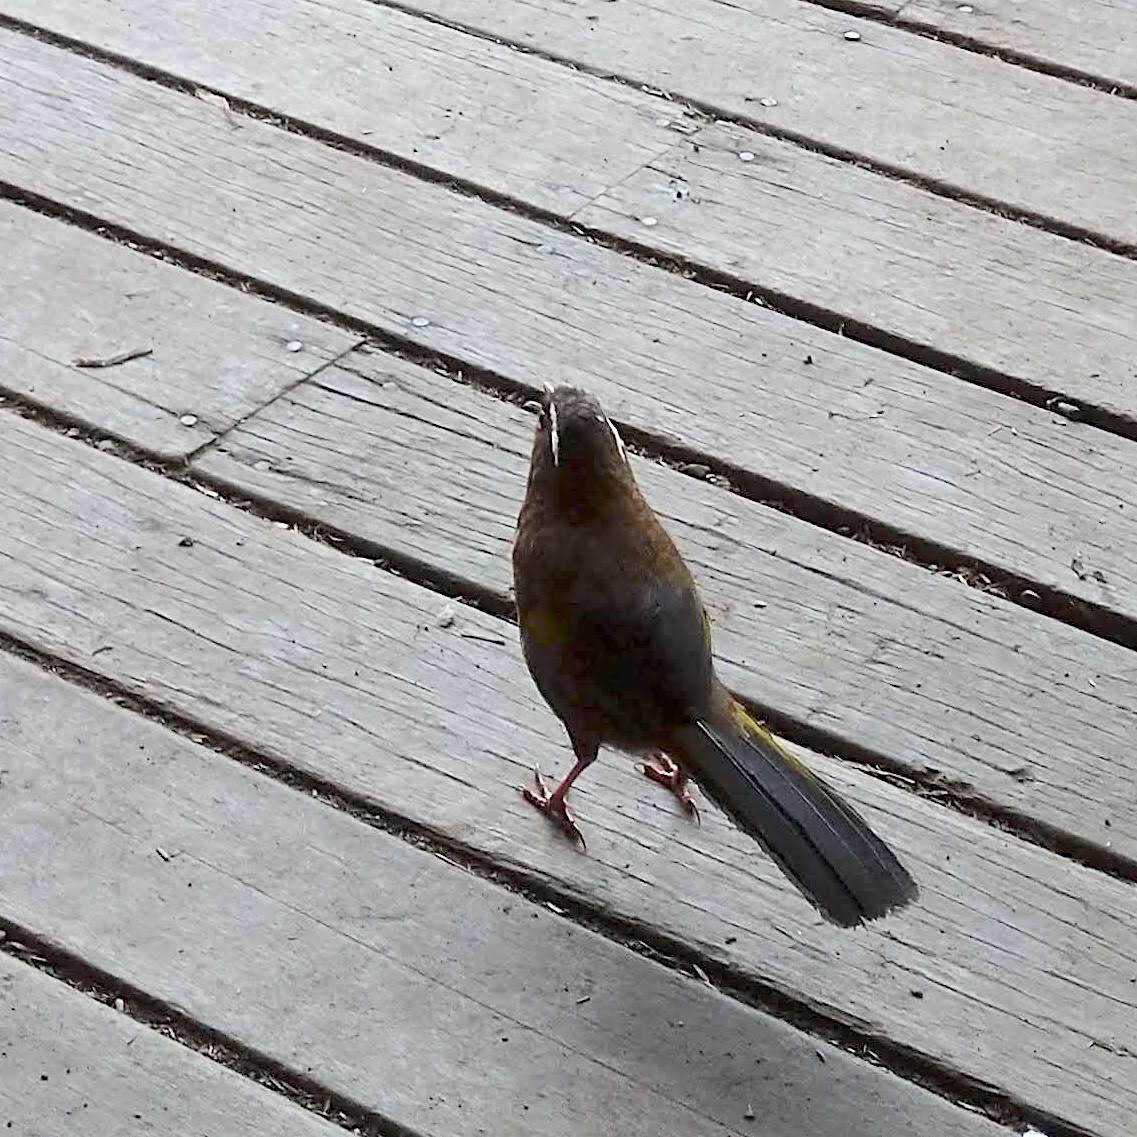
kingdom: Animalia
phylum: Chordata
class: Aves
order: Passeriformes
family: Leiothrichidae
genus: Trochalopteron
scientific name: Trochalopteron morrisonianum
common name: White-whiskered laughingthrush
